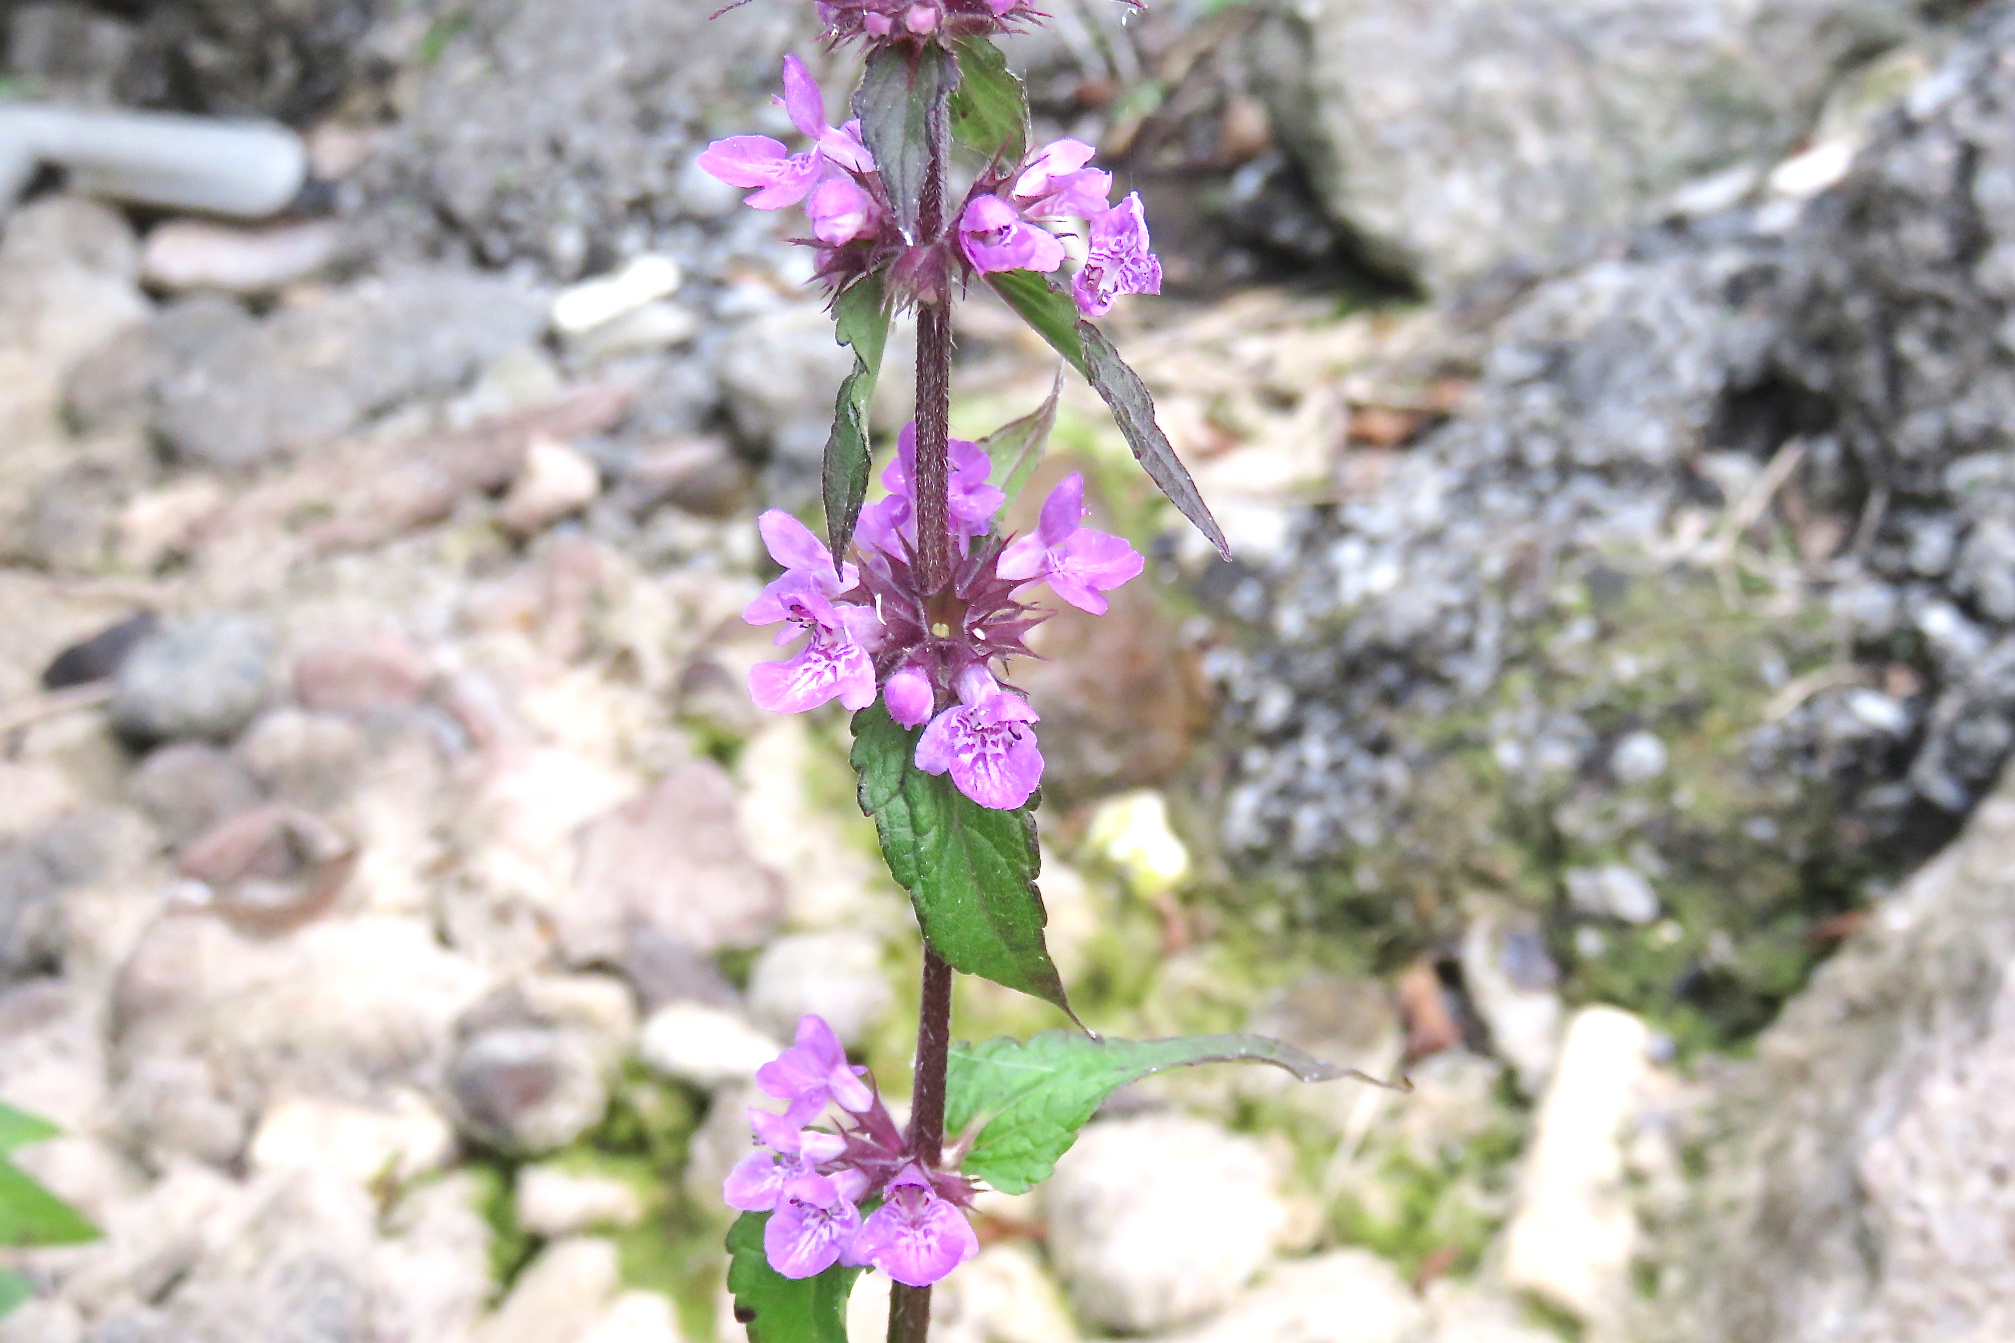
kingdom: Plantae
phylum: Tracheophyta
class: Magnoliopsida
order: Lamiales
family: Lamiaceae
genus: Stachys
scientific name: Stachys palustris
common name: Marsh woundwort
